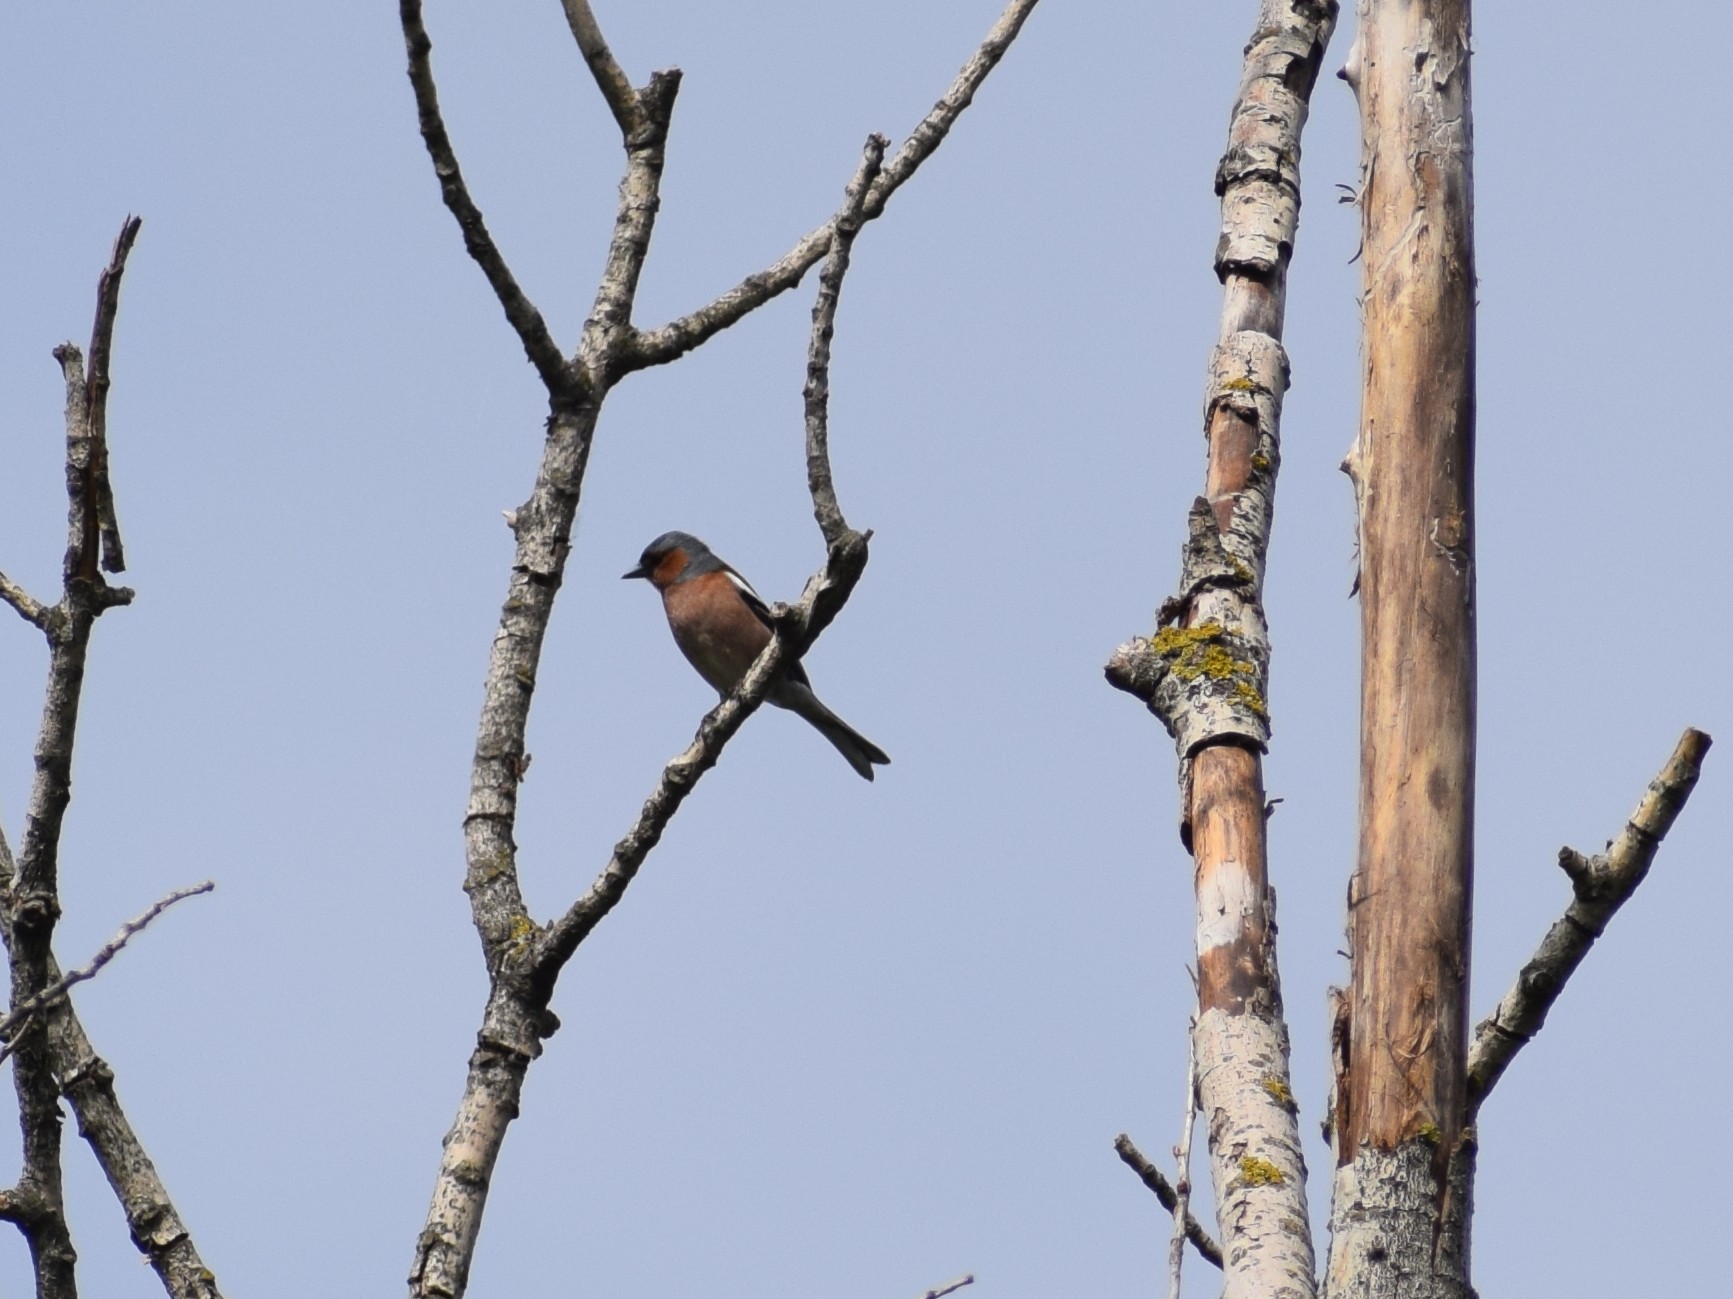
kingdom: Animalia
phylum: Chordata
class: Aves
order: Passeriformes
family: Fringillidae
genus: Fringilla
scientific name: Fringilla coelebs
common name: Common chaffinch
